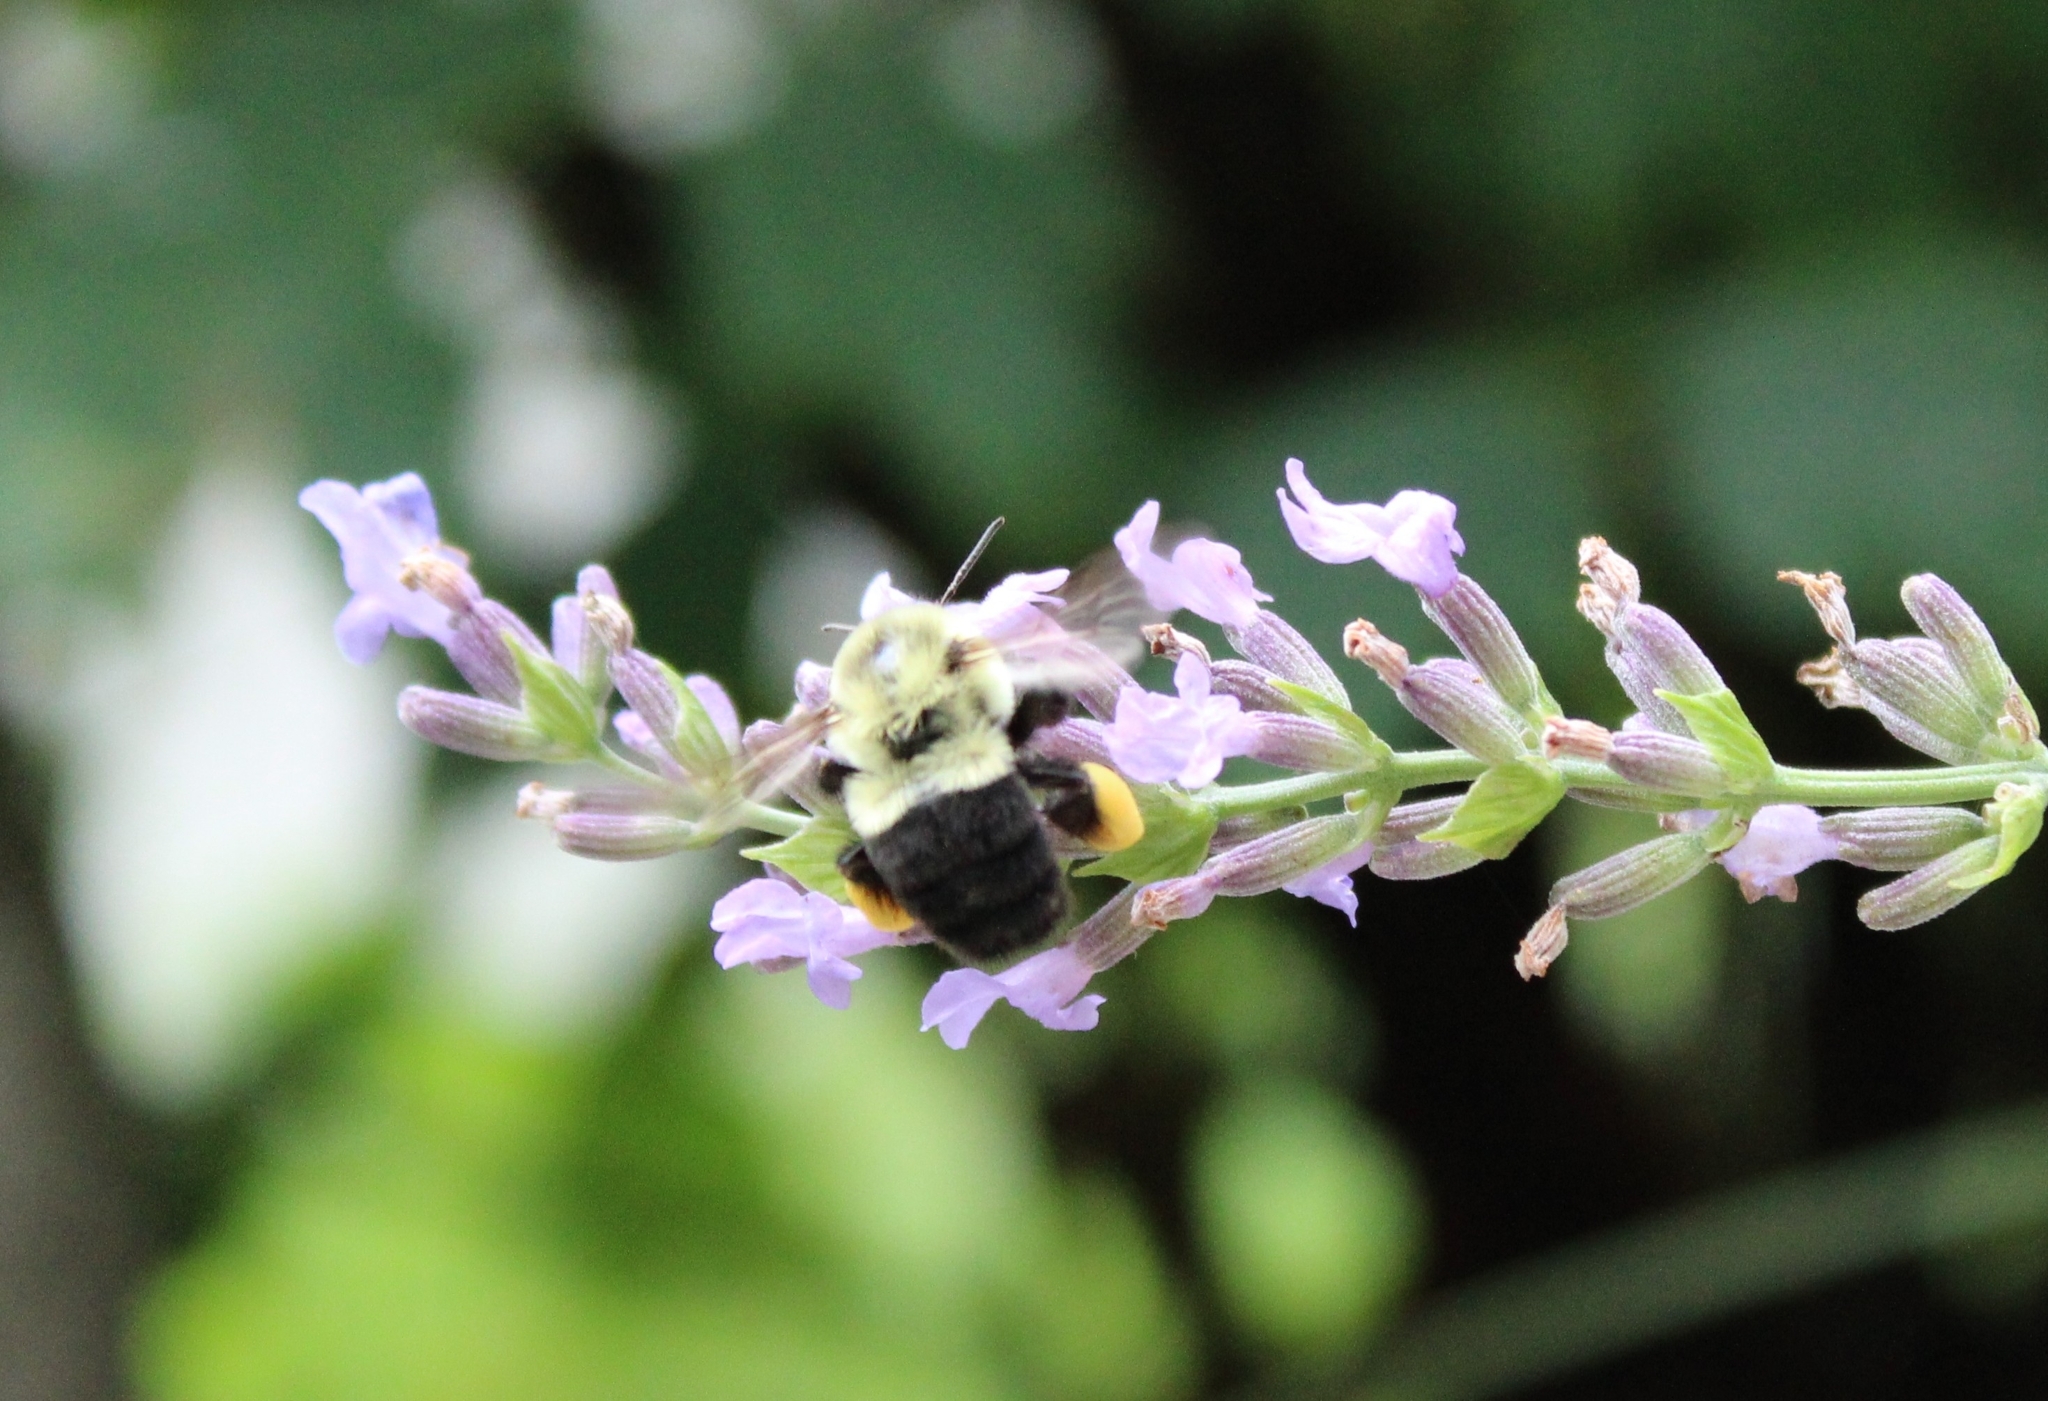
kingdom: Animalia
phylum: Arthropoda
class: Insecta
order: Hymenoptera
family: Apidae
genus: Bombus
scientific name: Bombus impatiens
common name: Common eastern bumble bee
